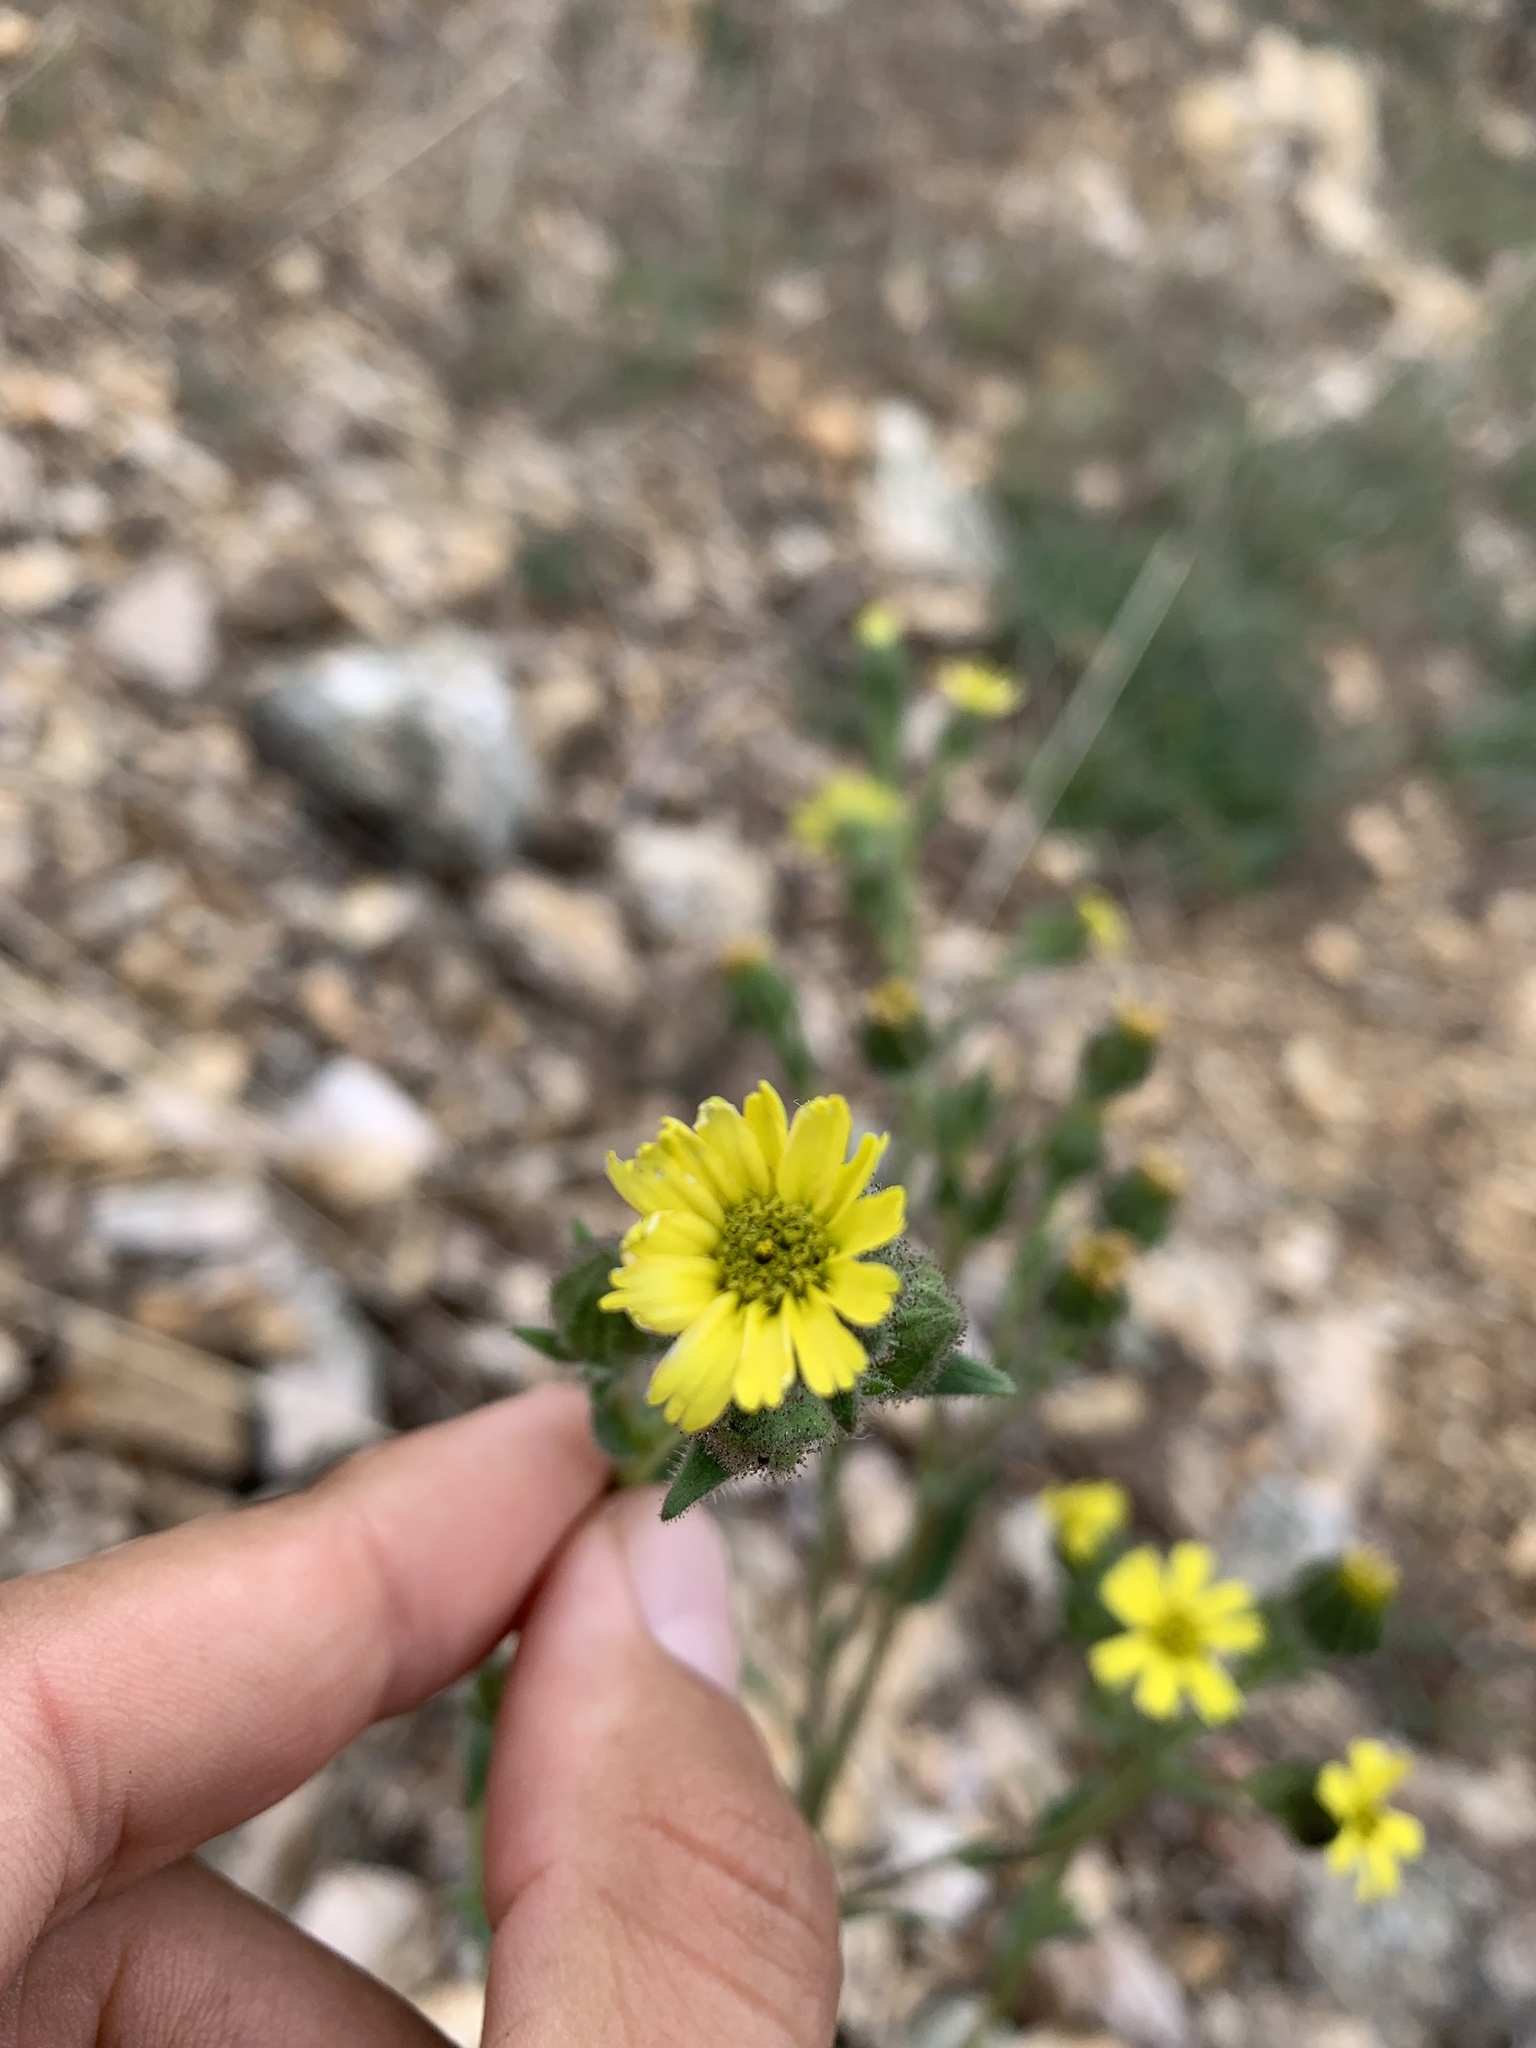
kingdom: Plantae
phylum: Tracheophyta
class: Magnoliopsida
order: Asterales
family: Asteraceae
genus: Madia
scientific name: Madia gracilis
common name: Grassy tarweed
